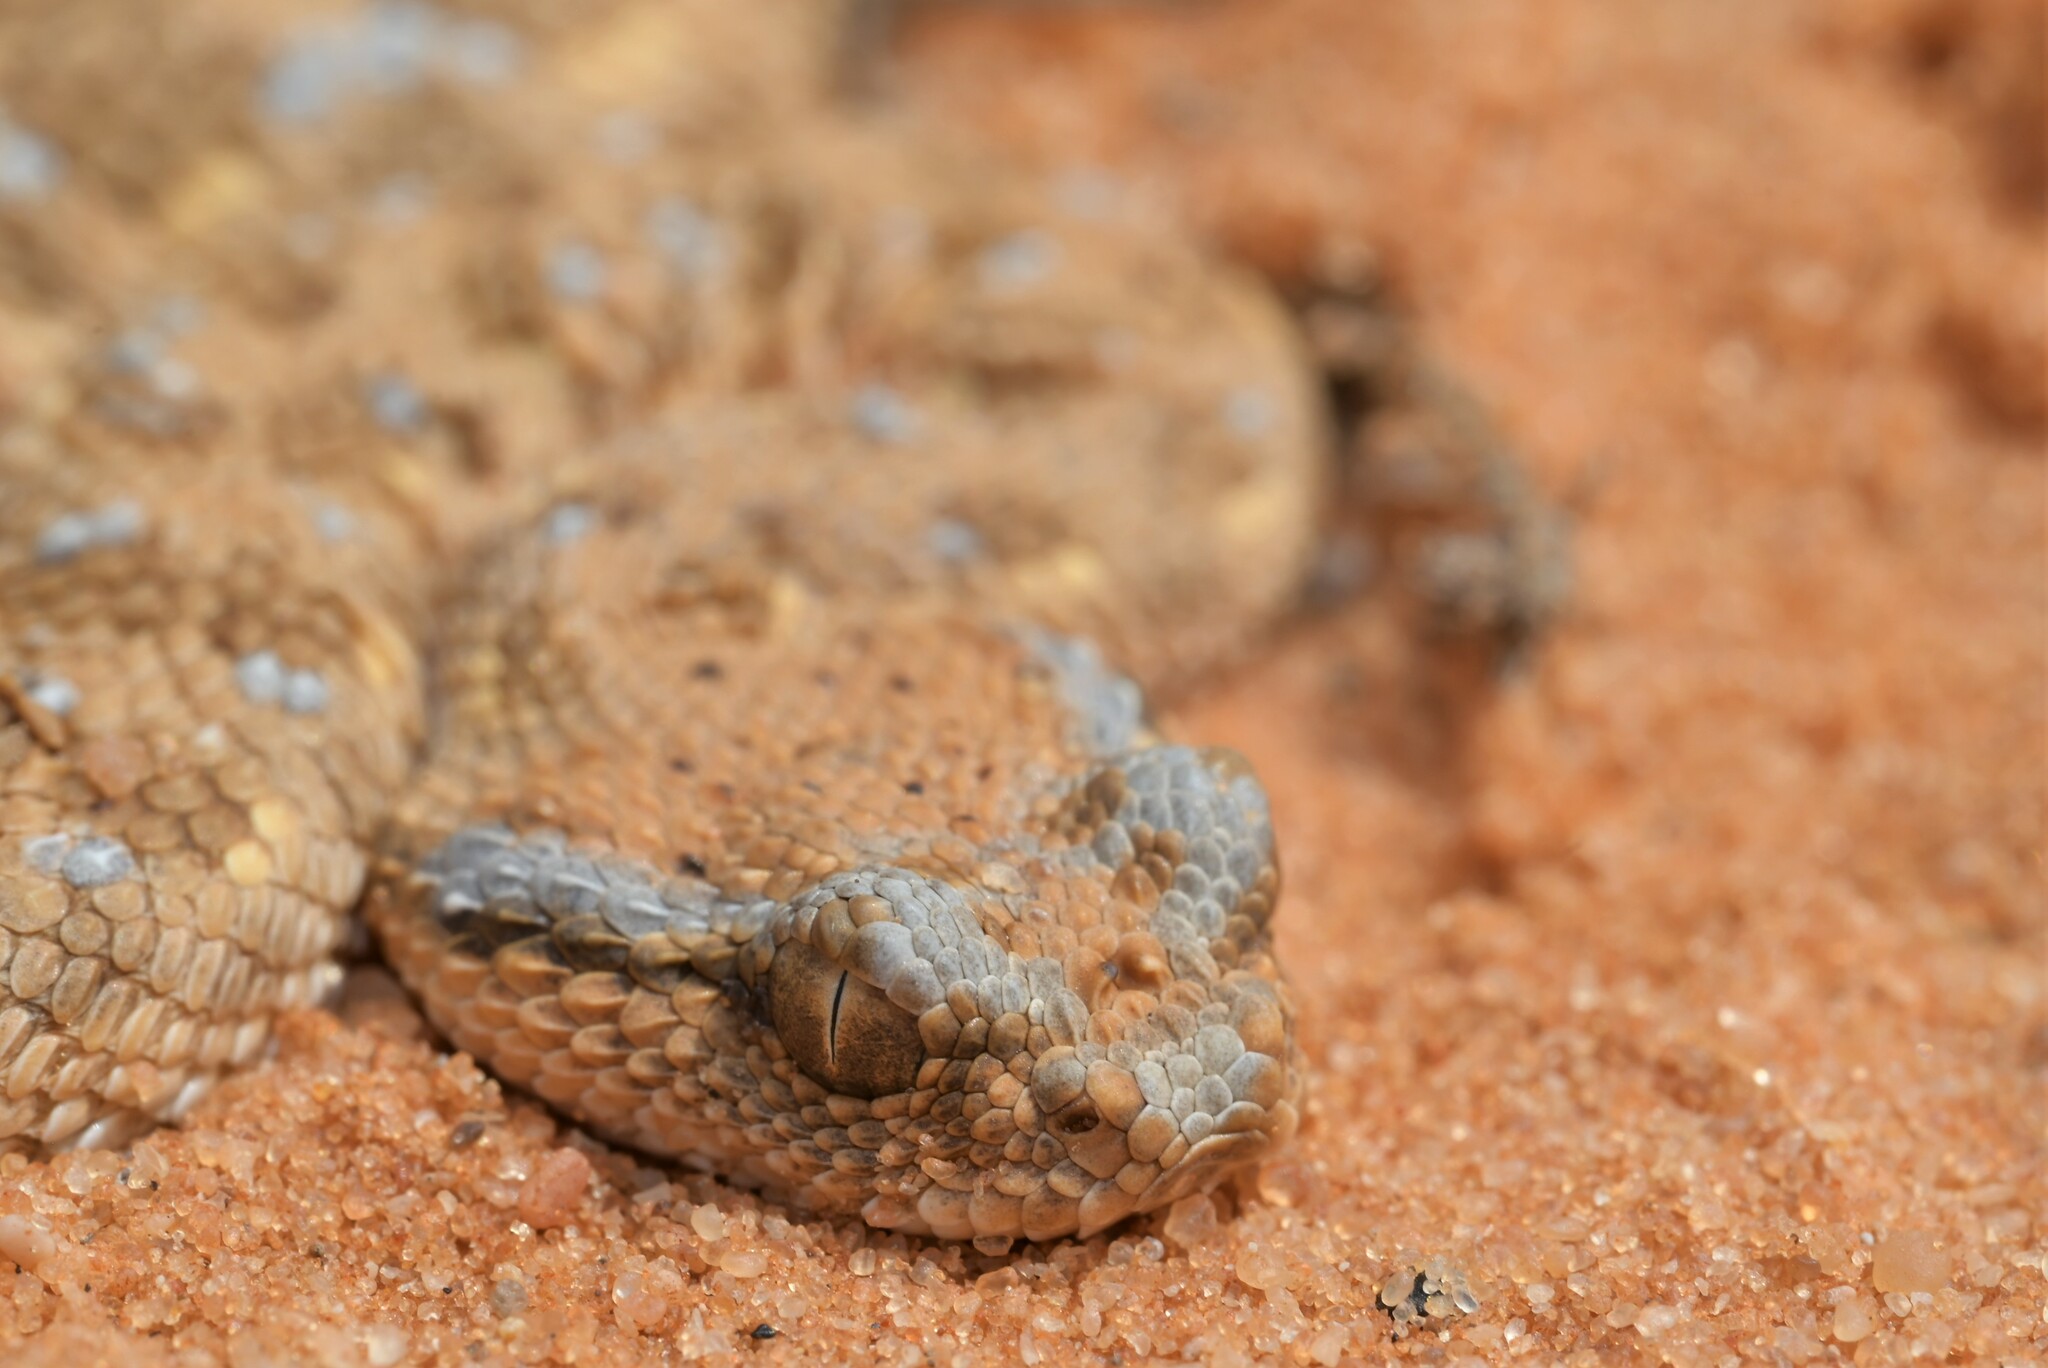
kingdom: Animalia
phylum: Chordata
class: Squamata
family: Viperidae
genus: Cerastes
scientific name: Cerastes gasperettii
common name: Arabian horned viper
